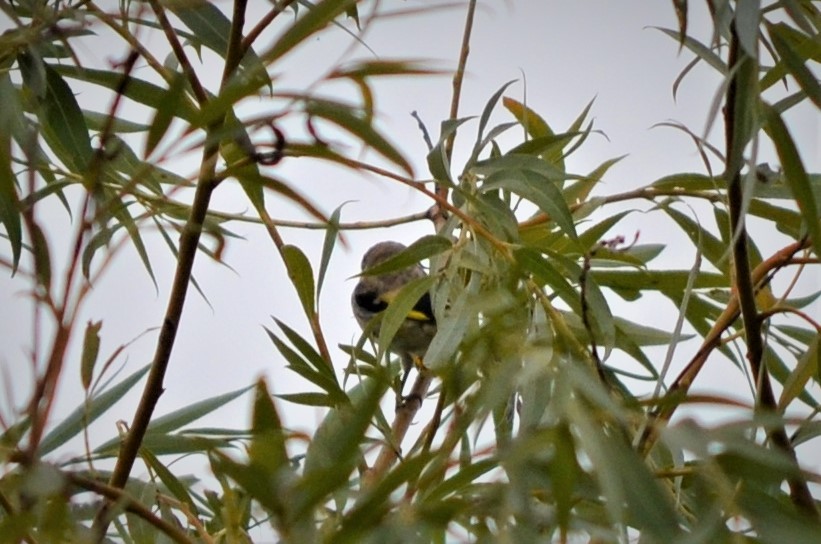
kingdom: Animalia
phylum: Chordata
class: Aves
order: Passeriformes
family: Fringillidae
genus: Carduelis
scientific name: Carduelis carduelis
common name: European goldfinch
